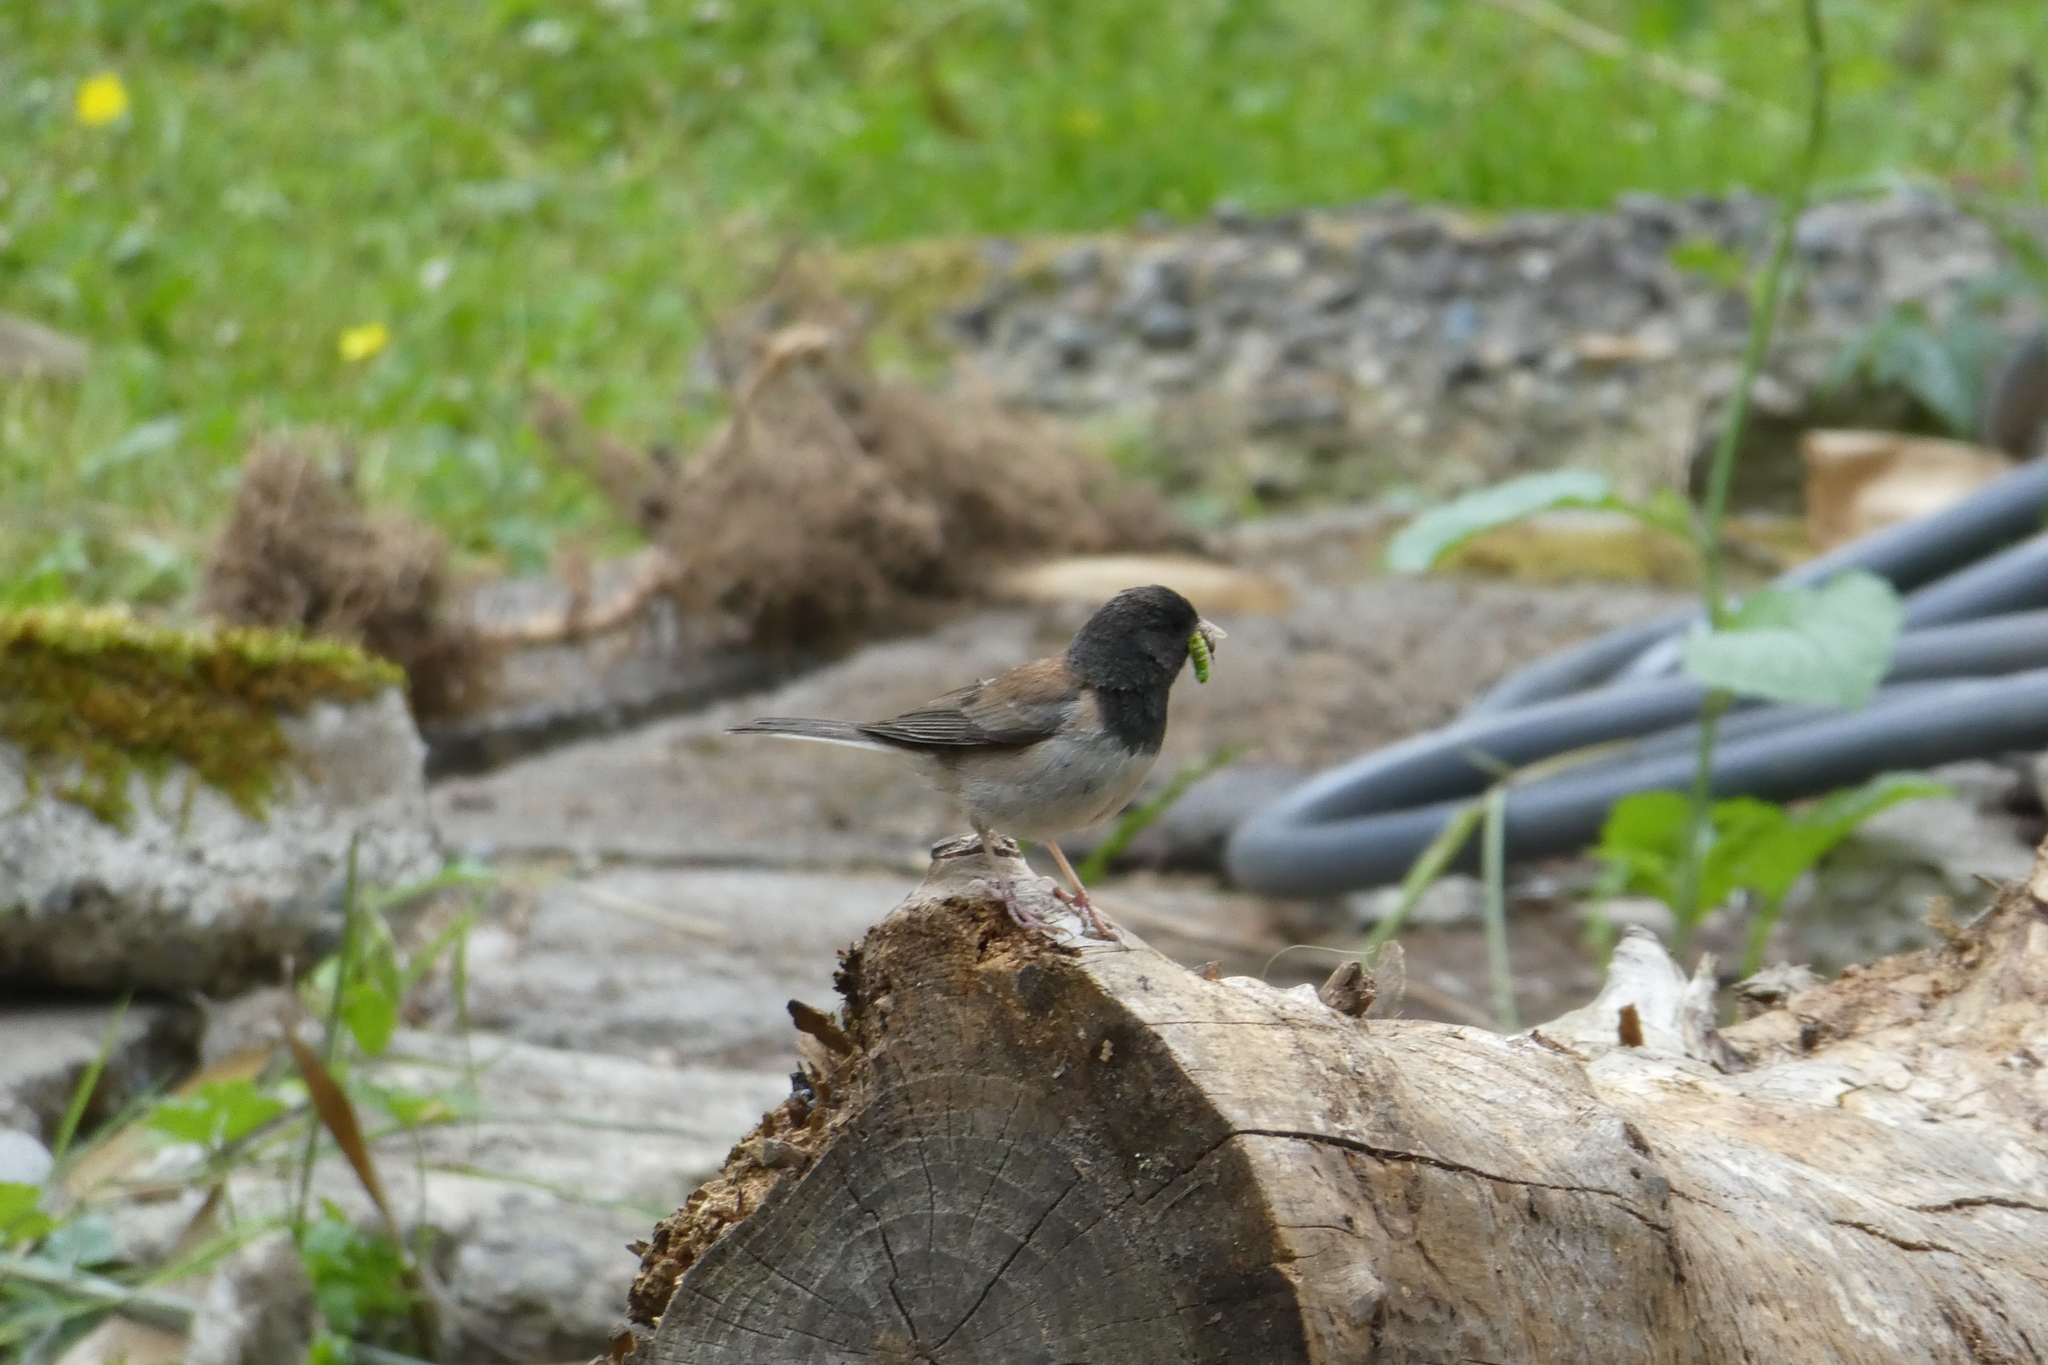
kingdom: Animalia
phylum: Chordata
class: Aves
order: Passeriformes
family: Passerellidae
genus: Junco
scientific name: Junco hyemalis
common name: Dark-eyed junco
